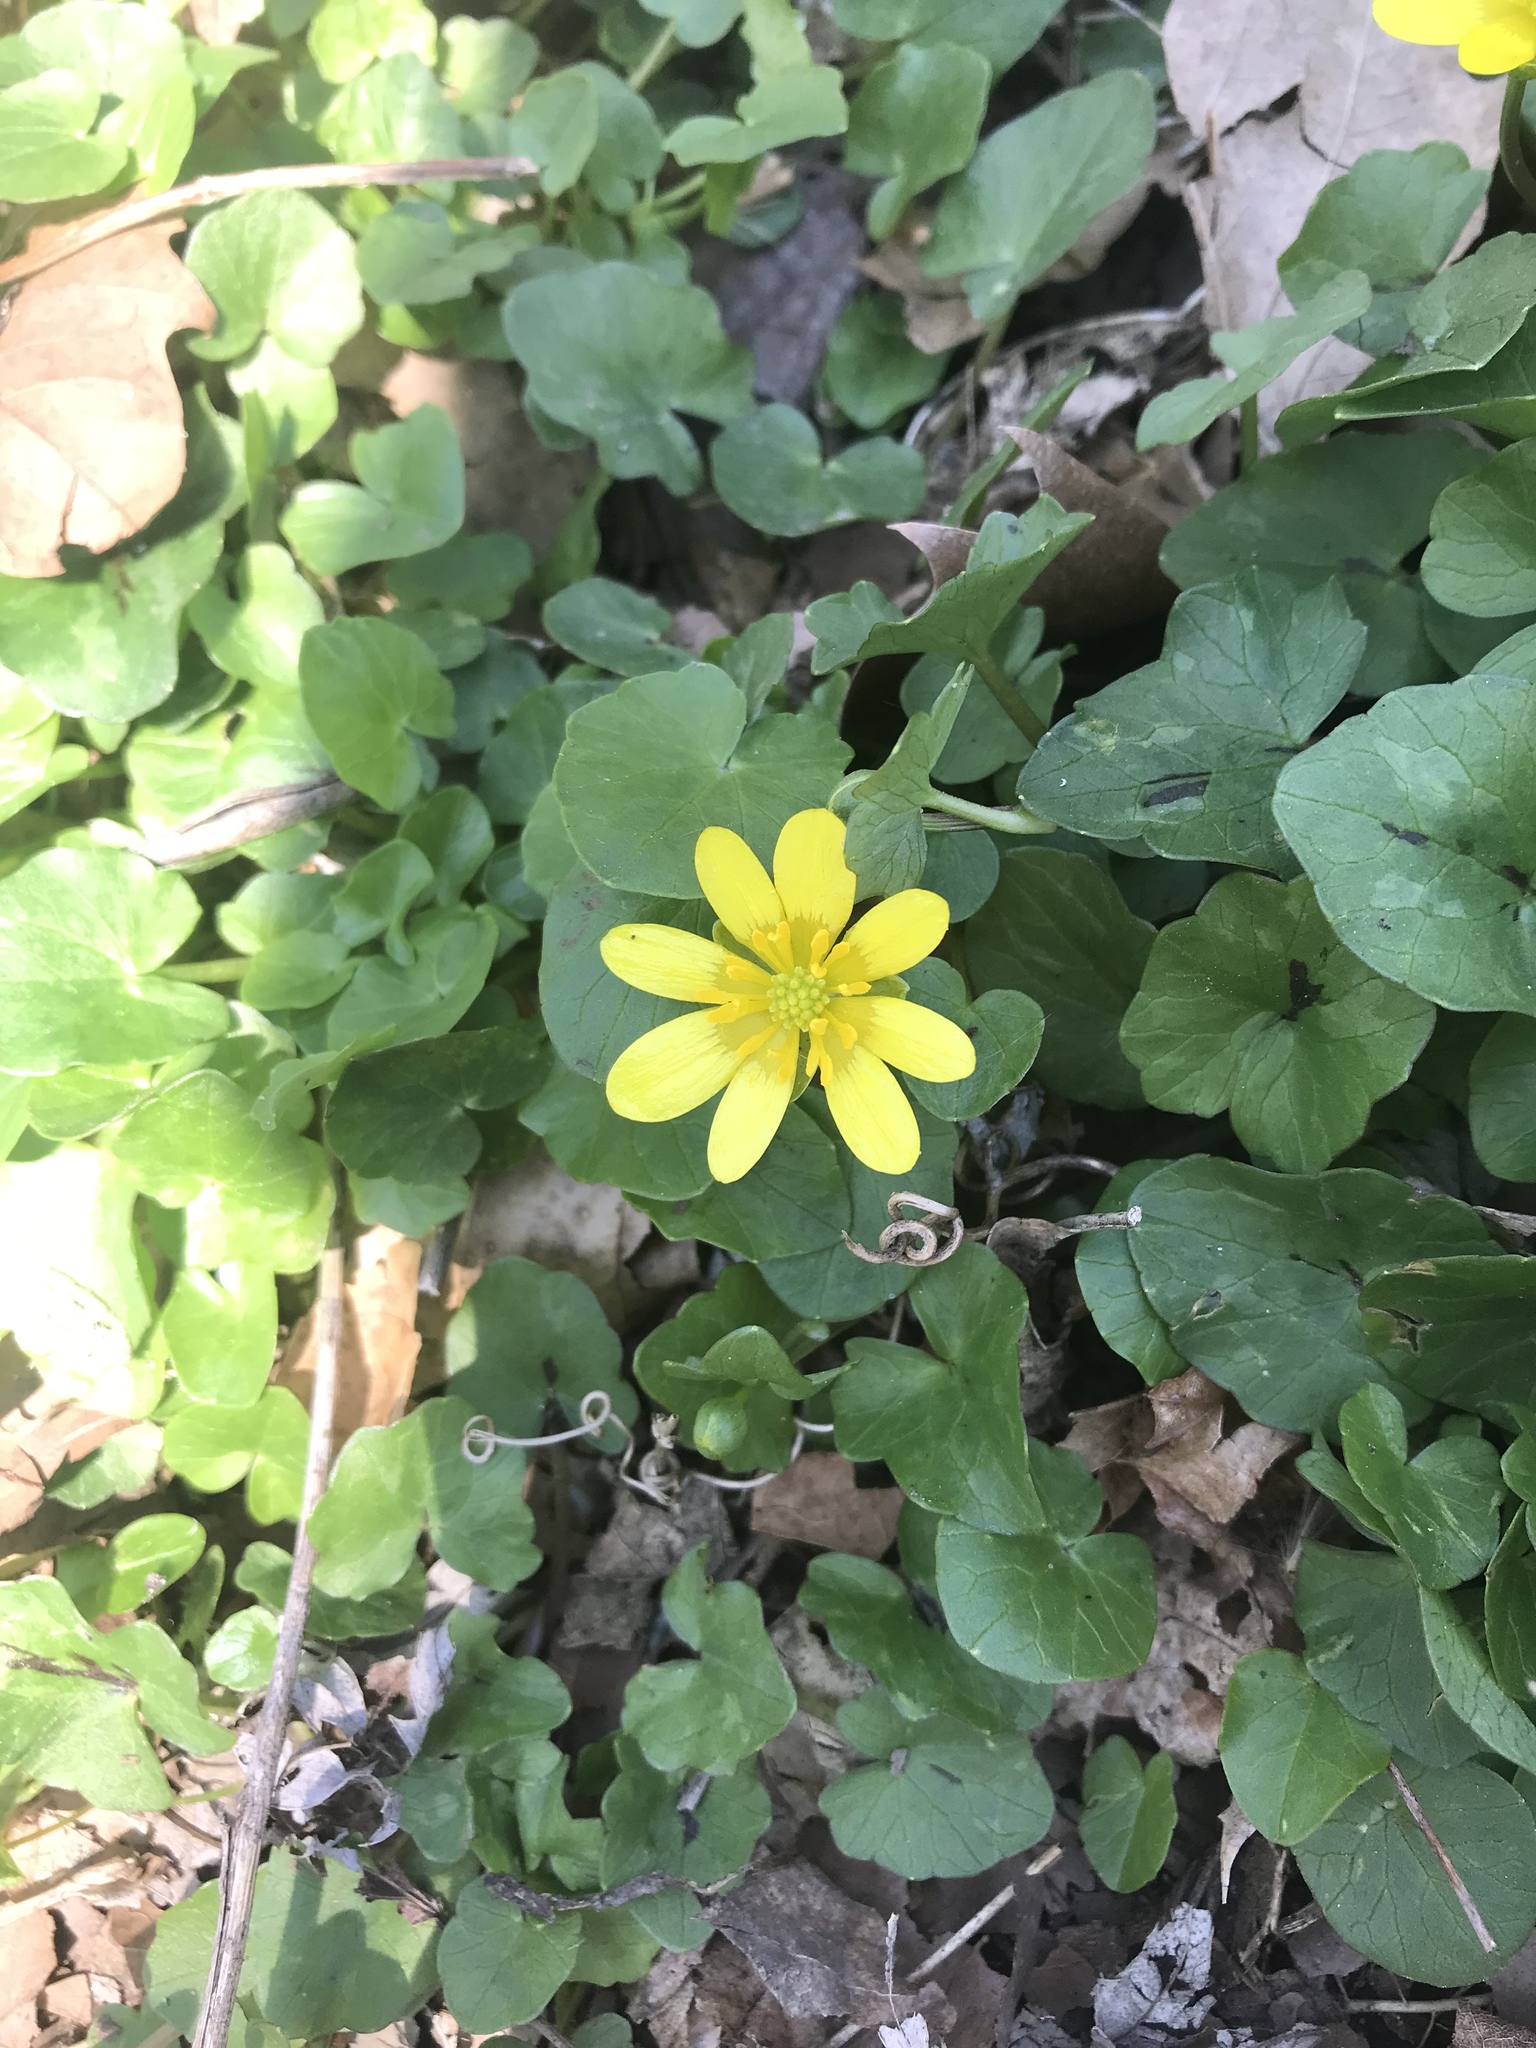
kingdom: Plantae
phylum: Tracheophyta
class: Magnoliopsida
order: Ranunculales
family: Ranunculaceae
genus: Ficaria
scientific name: Ficaria verna
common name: Lesser celandine
